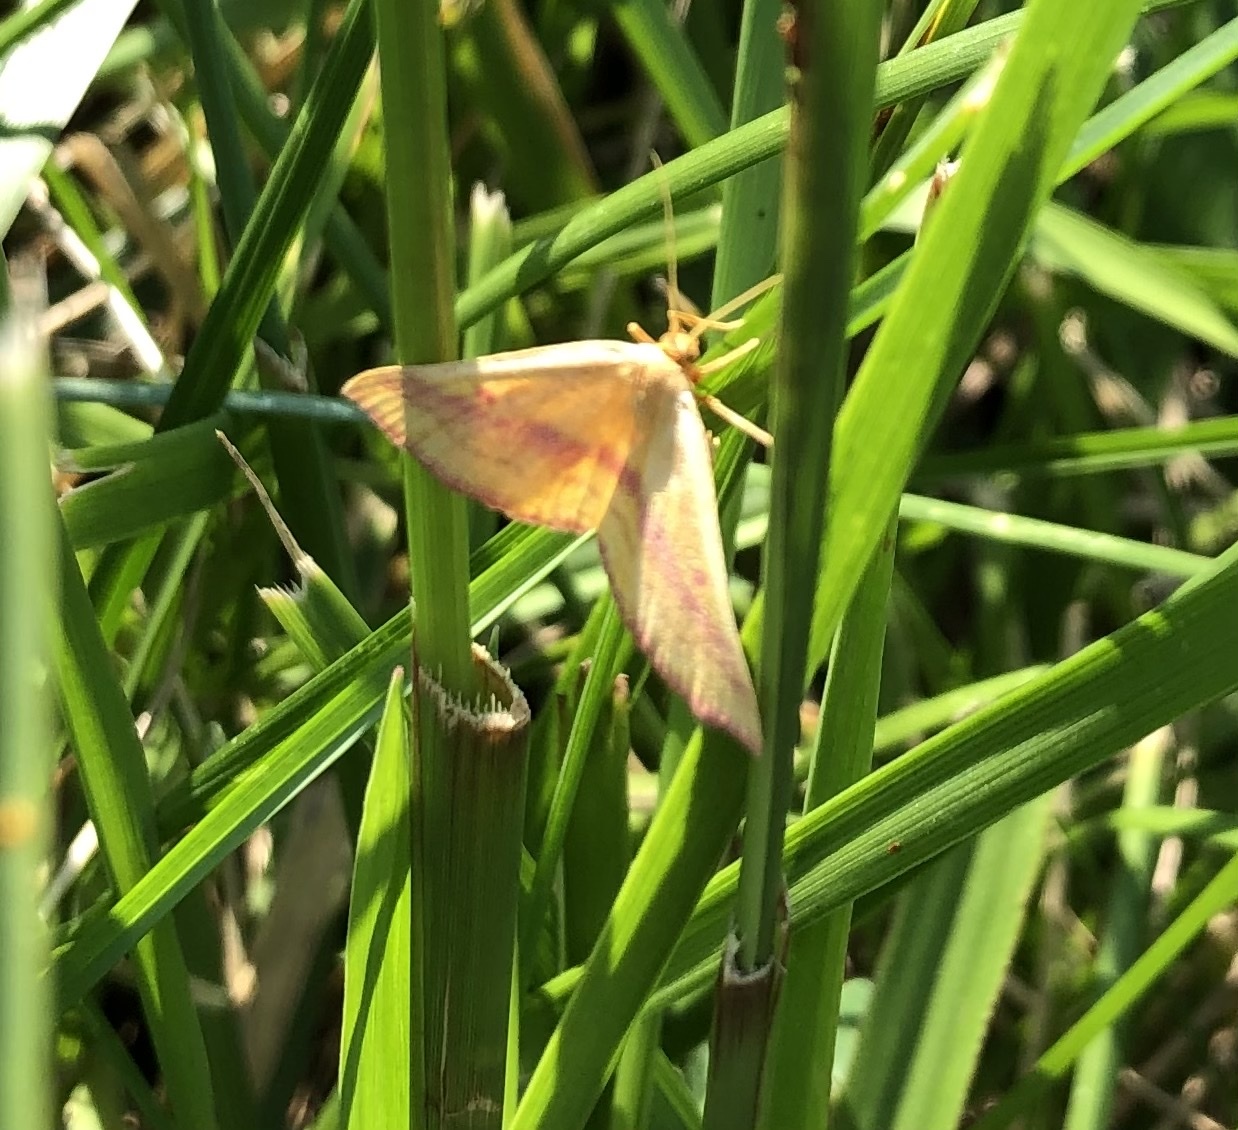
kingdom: Animalia
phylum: Arthropoda
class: Insecta
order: Lepidoptera
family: Geometridae
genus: Haematopis
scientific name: Haematopis grataria
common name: Chickweed geometer
